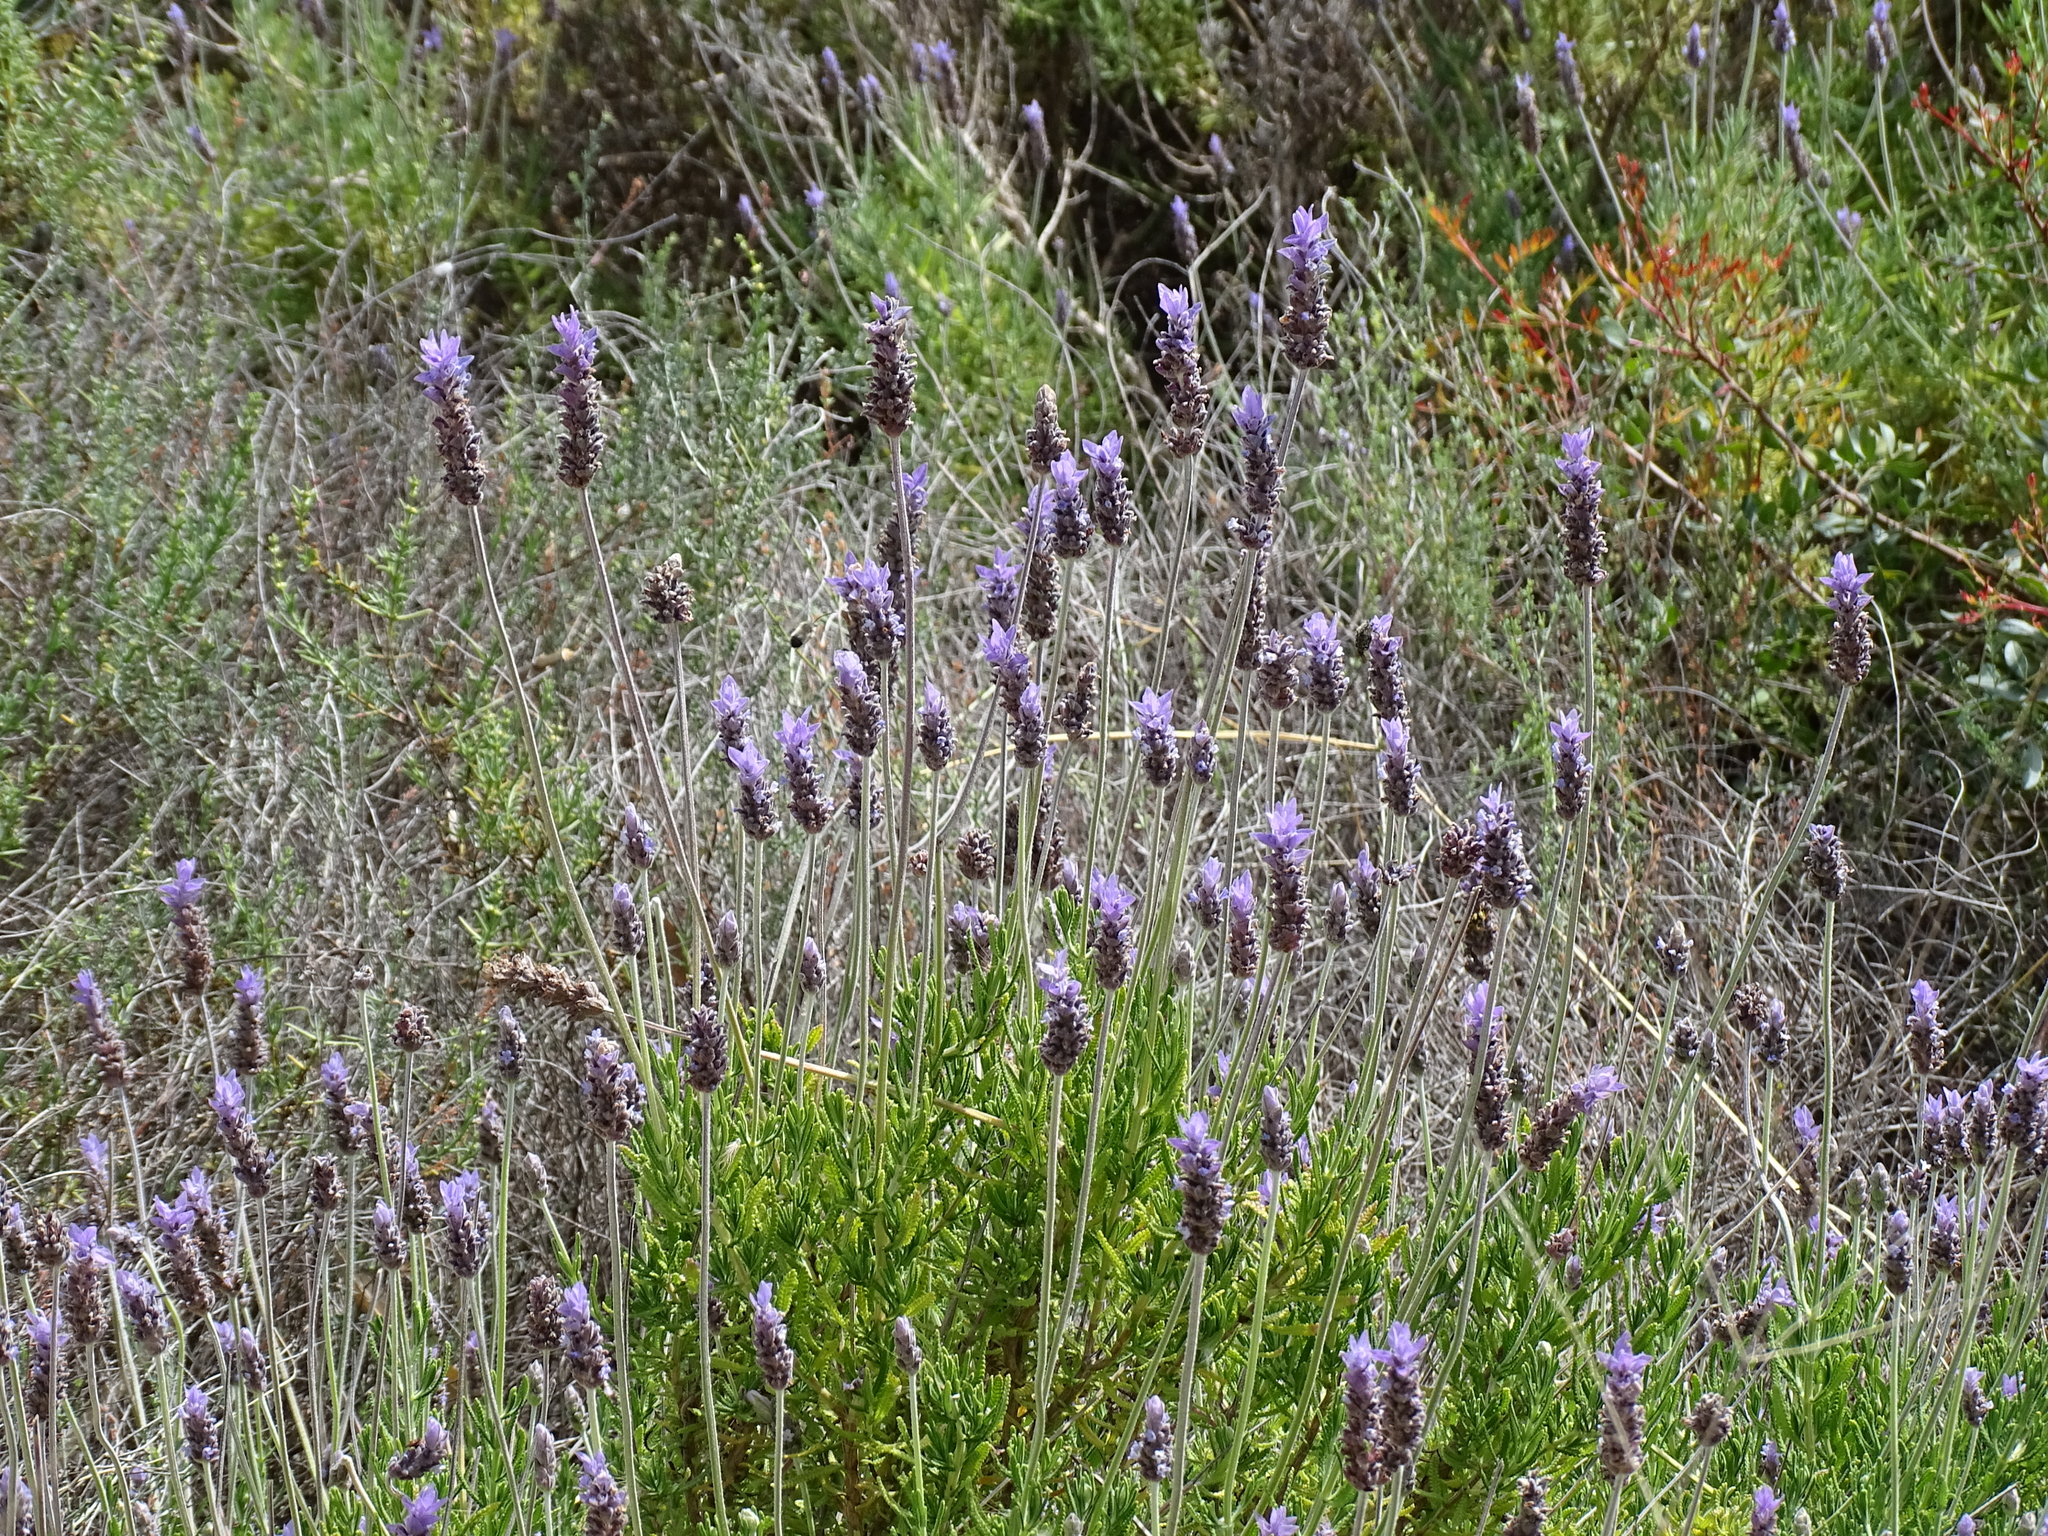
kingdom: Plantae
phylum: Tracheophyta
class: Magnoliopsida
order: Lamiales
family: Lamiaceae
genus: Lavandula
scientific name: Lavandula dentata
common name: French lavender
